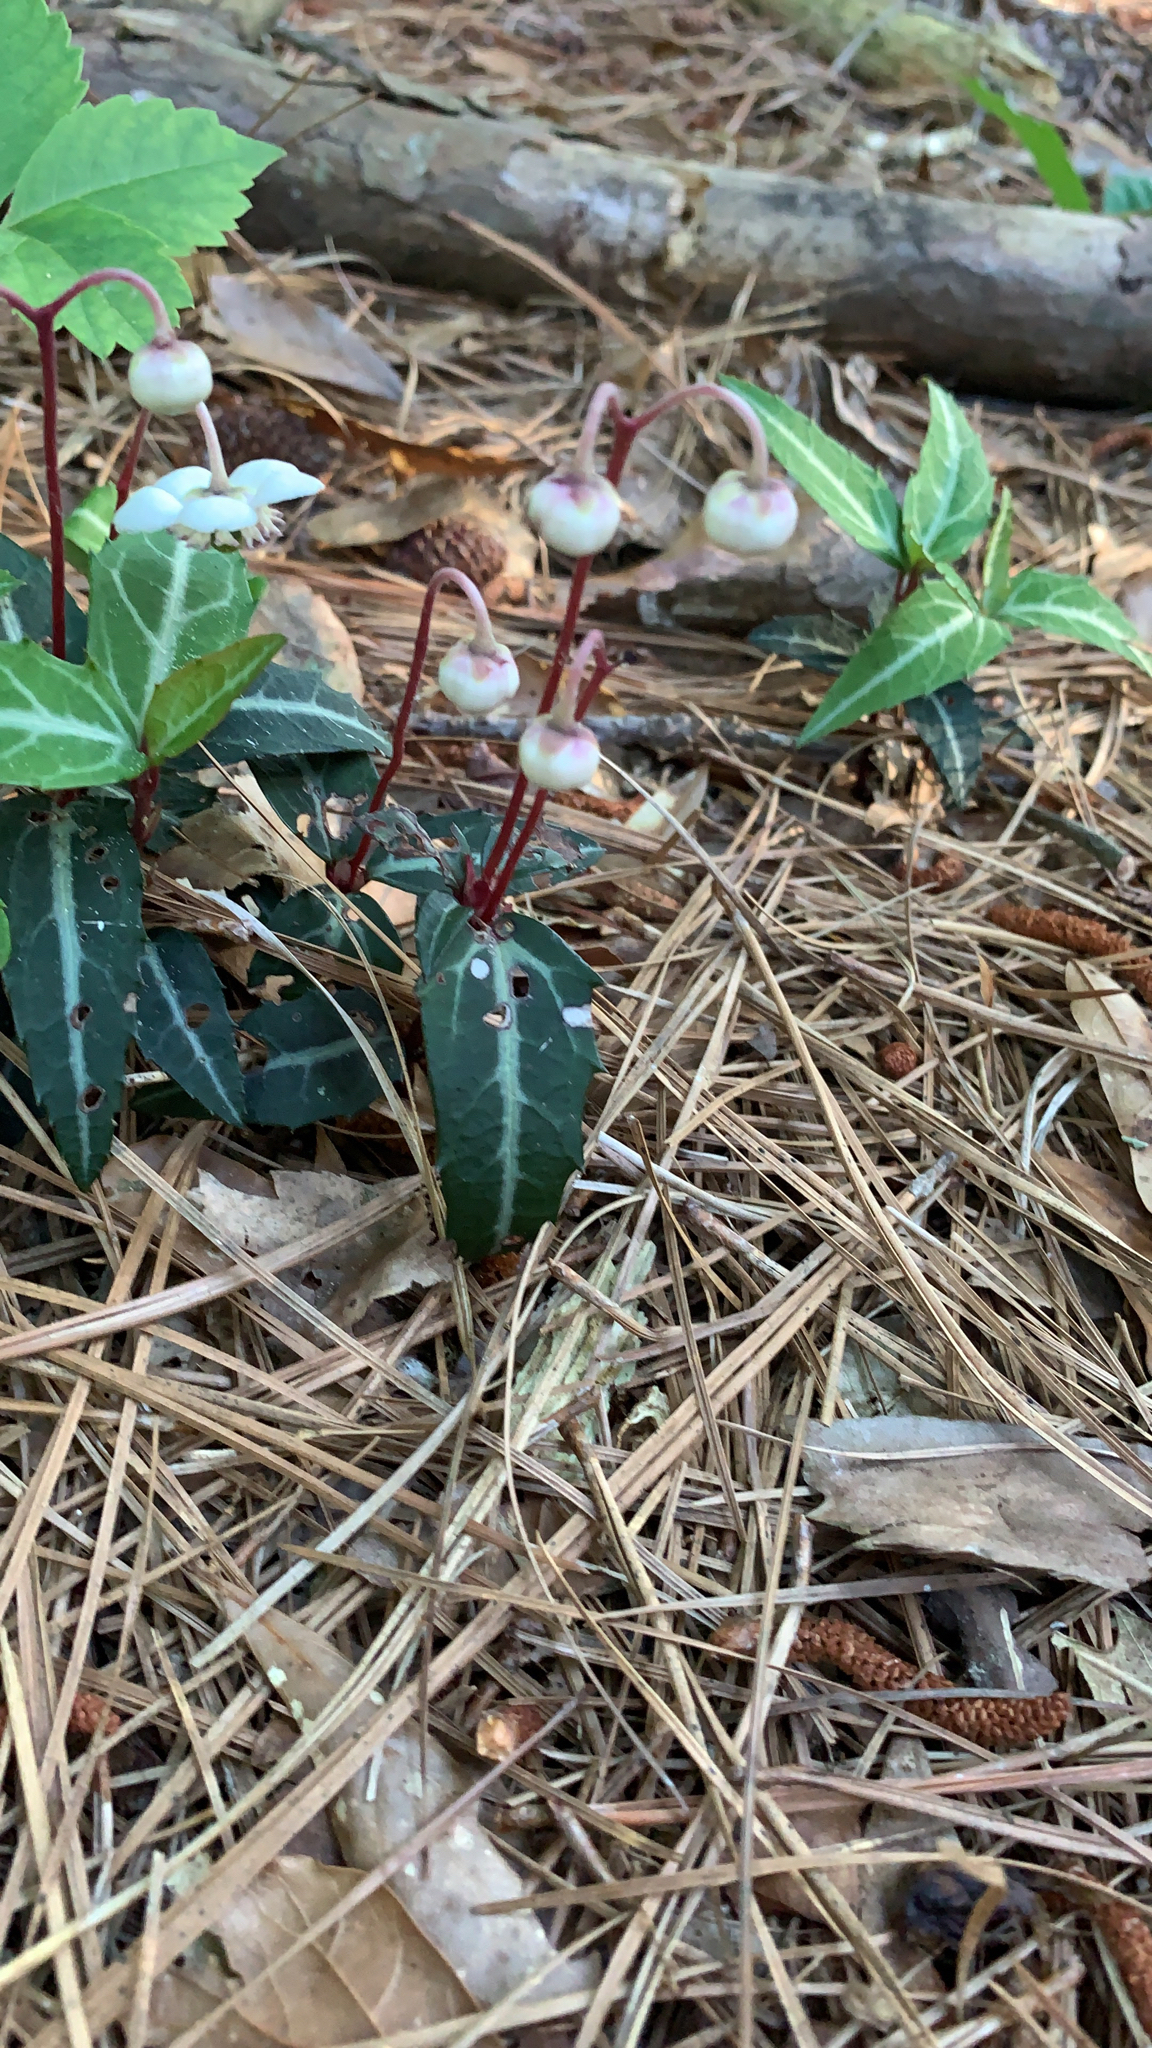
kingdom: Plantae
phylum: Tracheophyta
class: Magnoliopsida
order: Ericales
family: Ericaceae
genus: Chimaphila
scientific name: Chimaphila maculata
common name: Spotted pipsissewa
